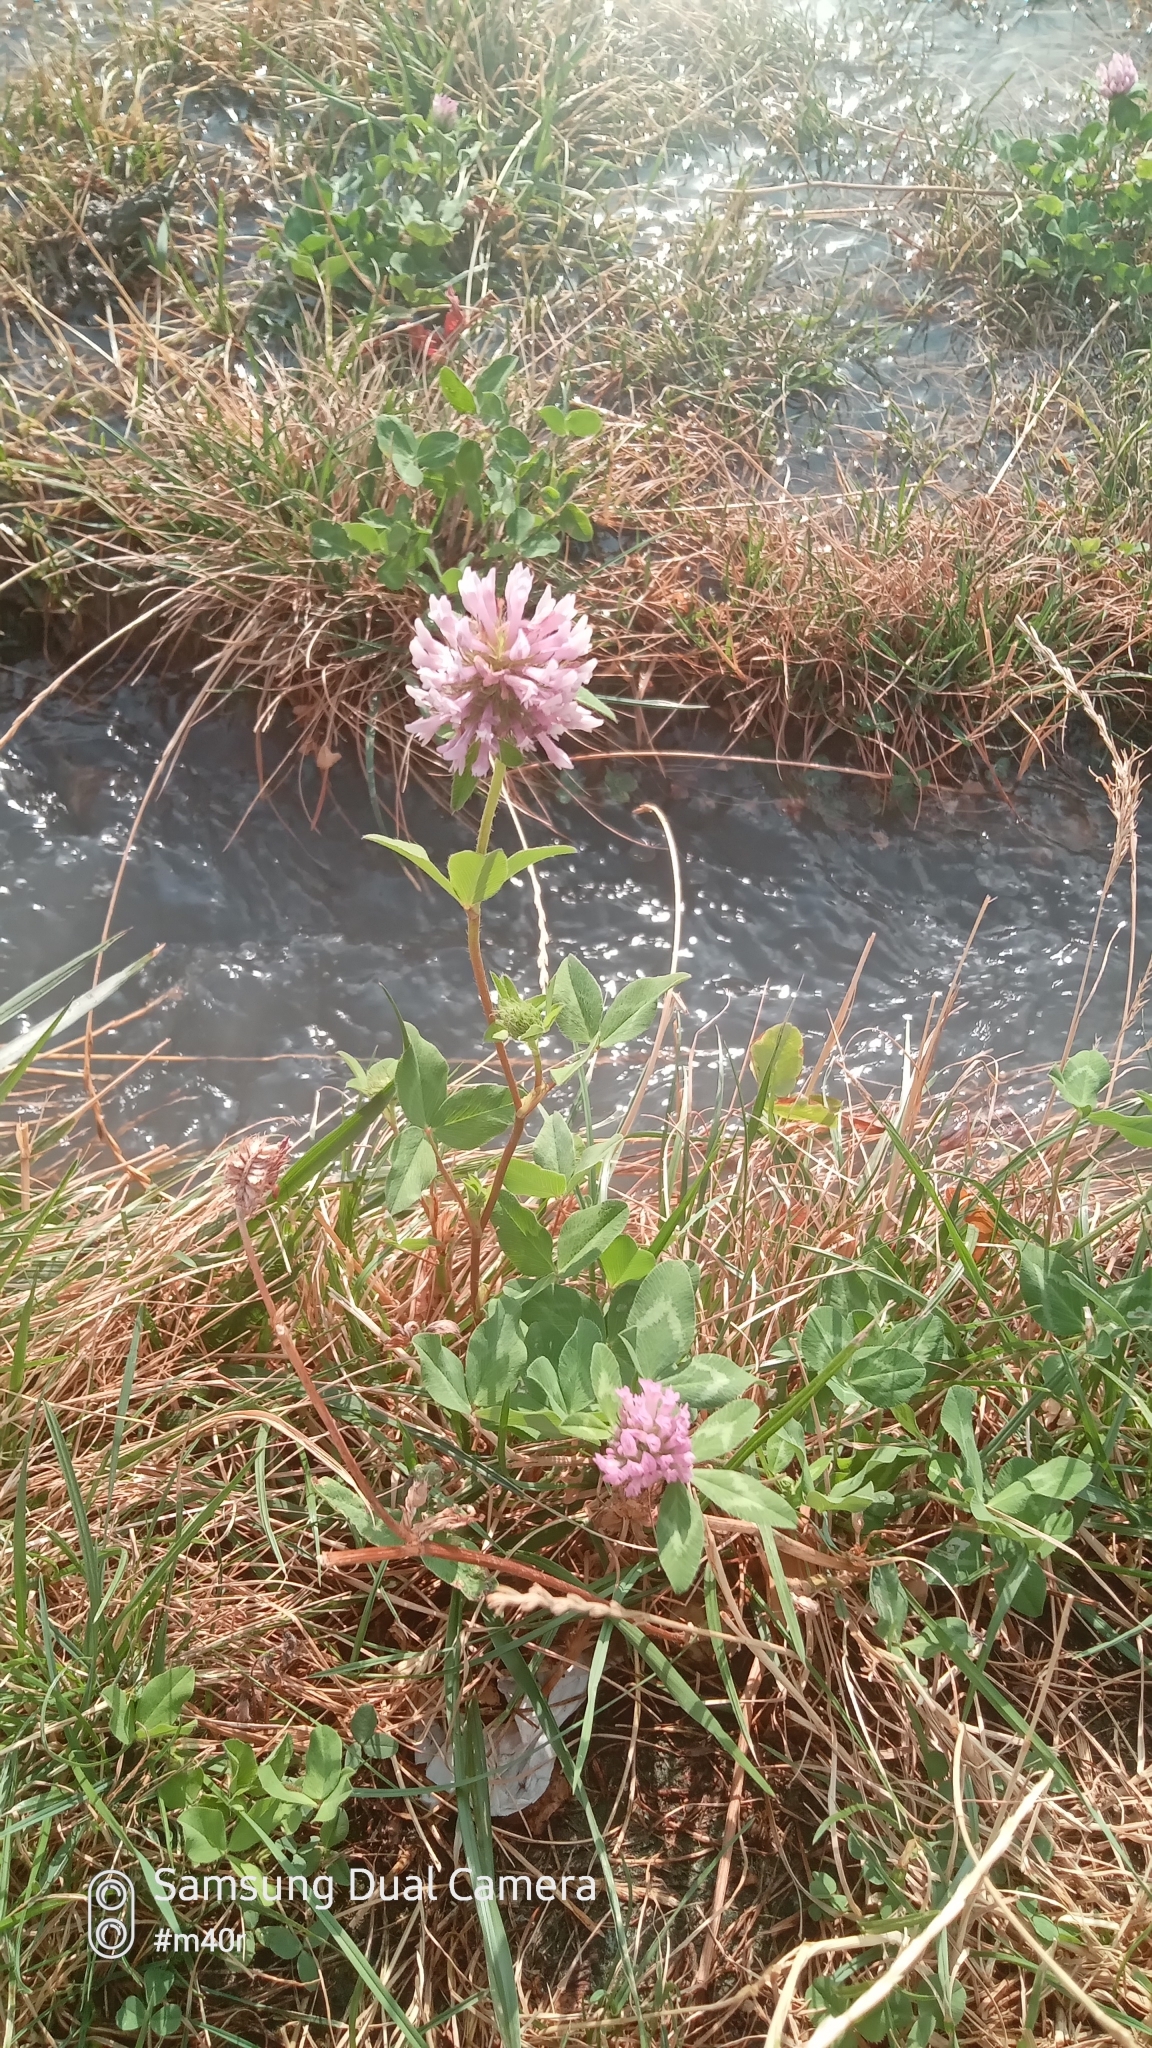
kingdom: Plantae
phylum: Tracheophyta
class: Magnoliopsida
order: Fabales
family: Fabaceae
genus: Trifolium
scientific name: Trifolium pratense
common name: Red clover
